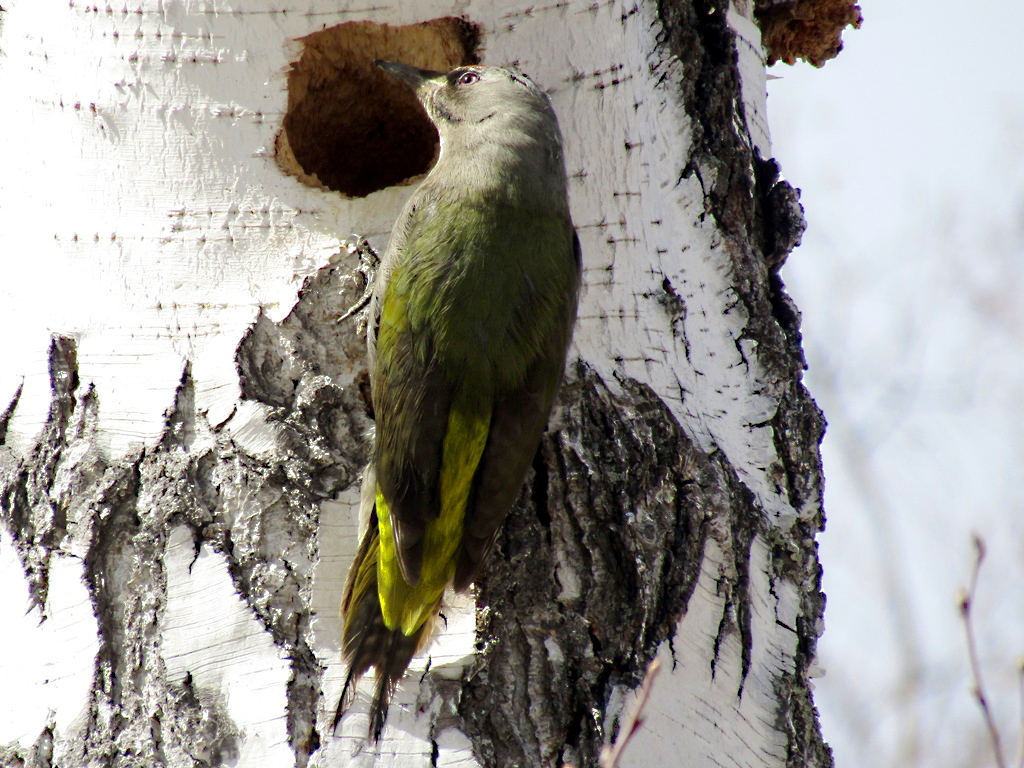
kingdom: Animalia
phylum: Chordata
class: Aves
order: Piciformes
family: Picidae
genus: Picus
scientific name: Picus canus
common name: Grey-headed woodpecker
